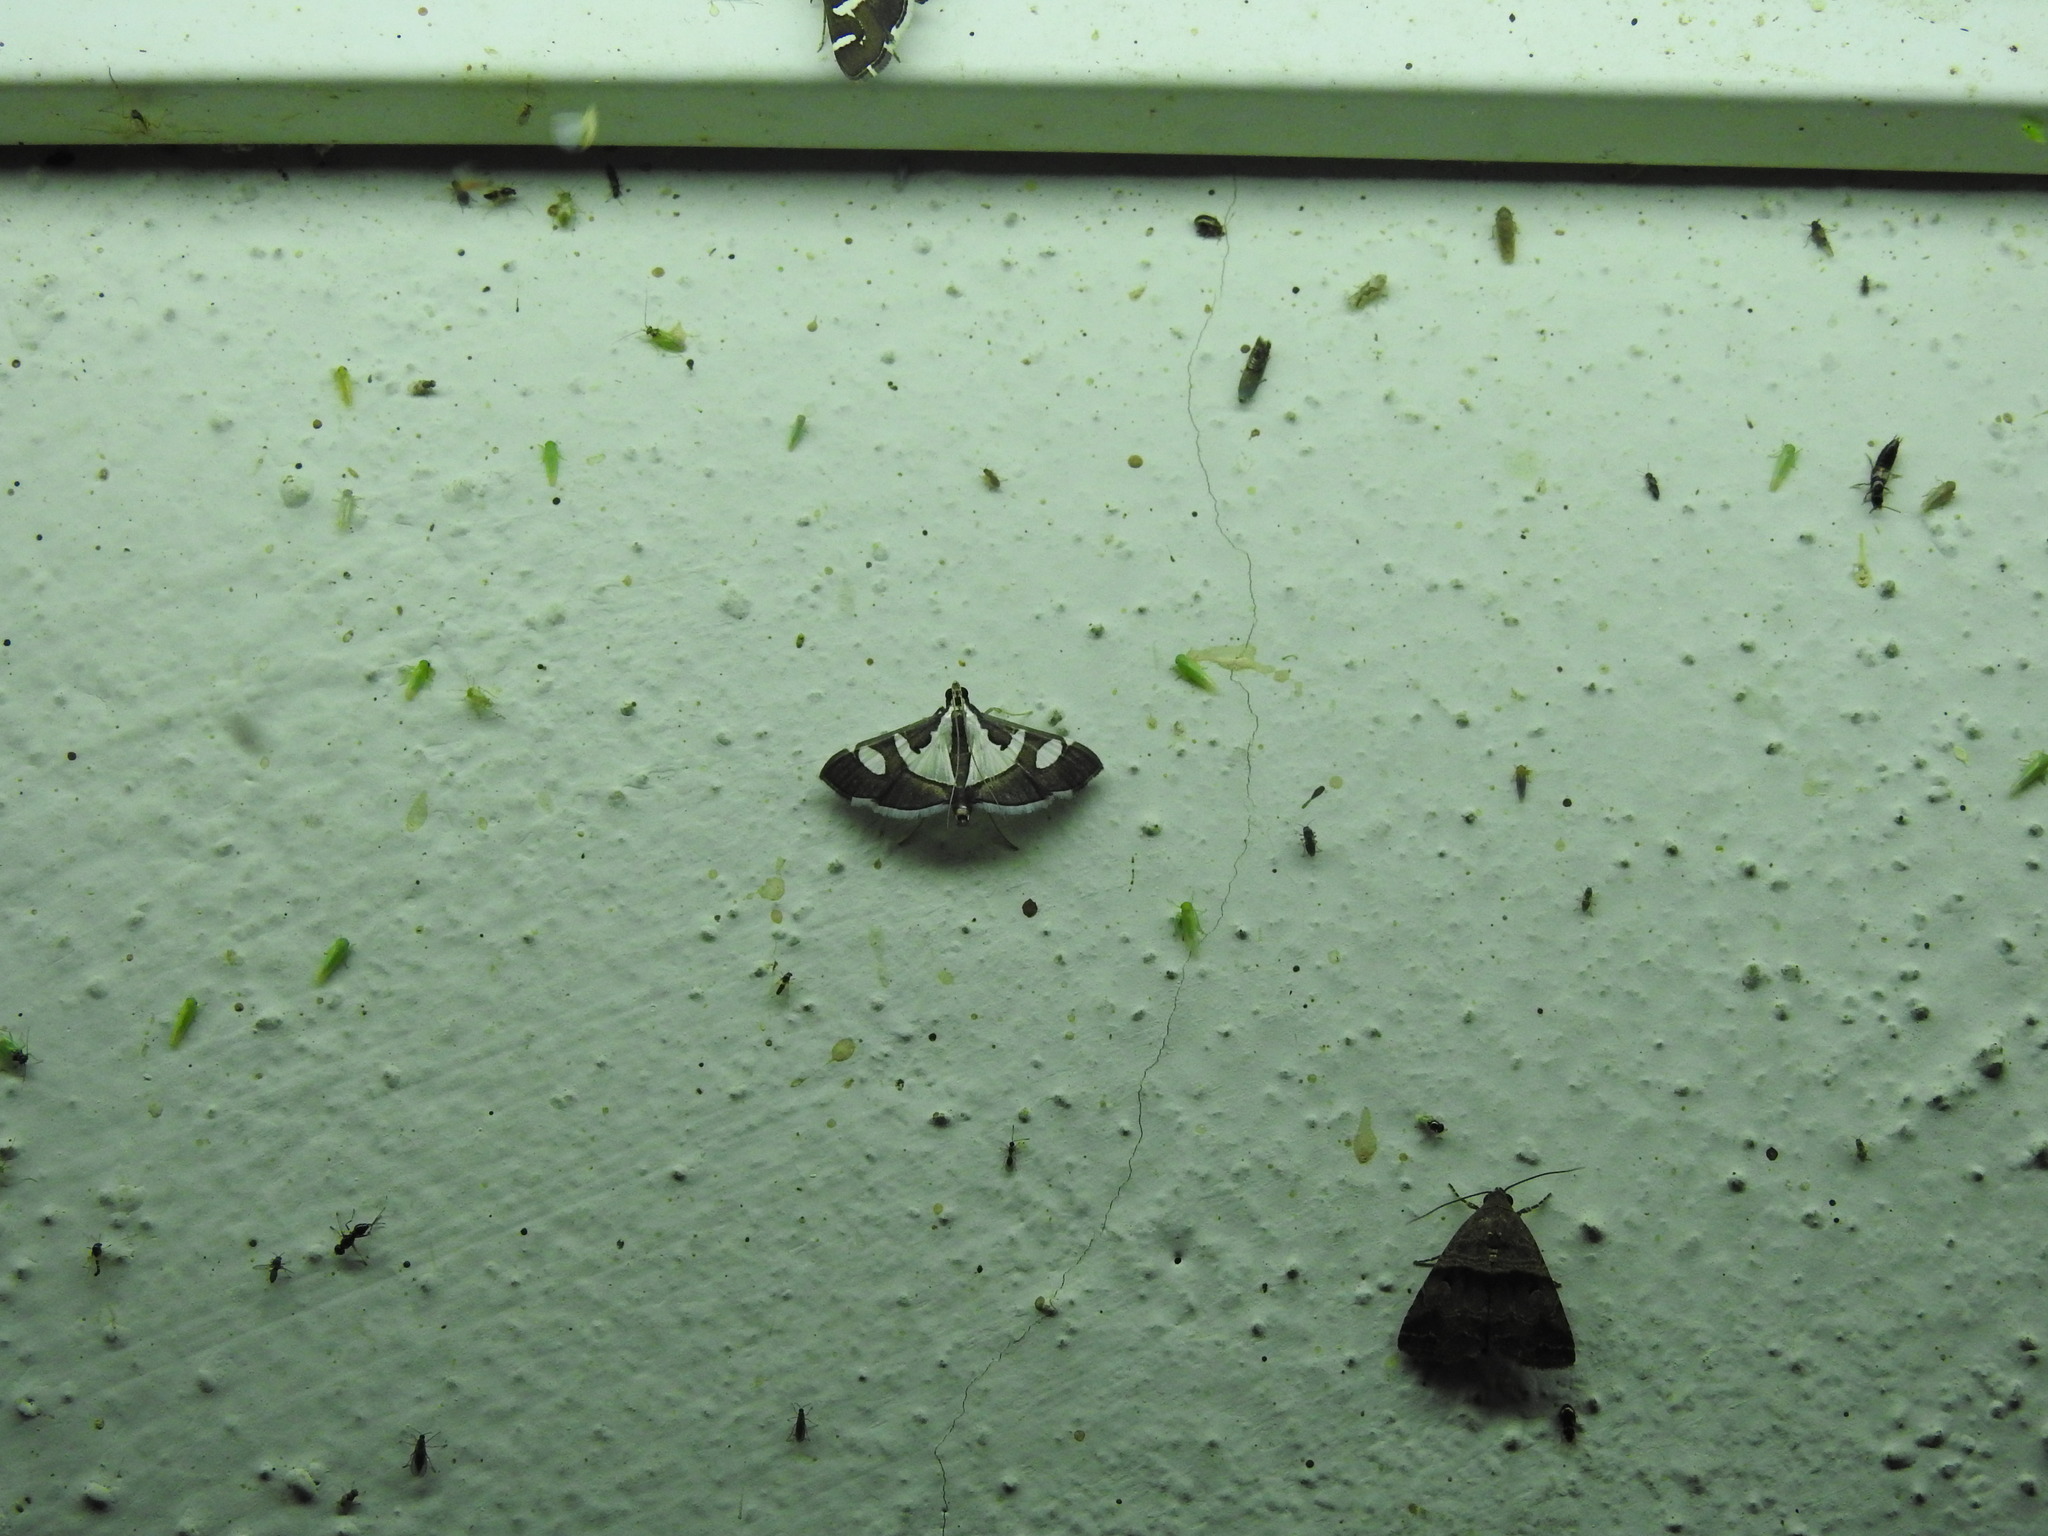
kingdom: Animalia
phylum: Arthropoda
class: Insecta
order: Lepidoptera
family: Crambidae
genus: Glyphodes
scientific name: Glyphodes bicolor
